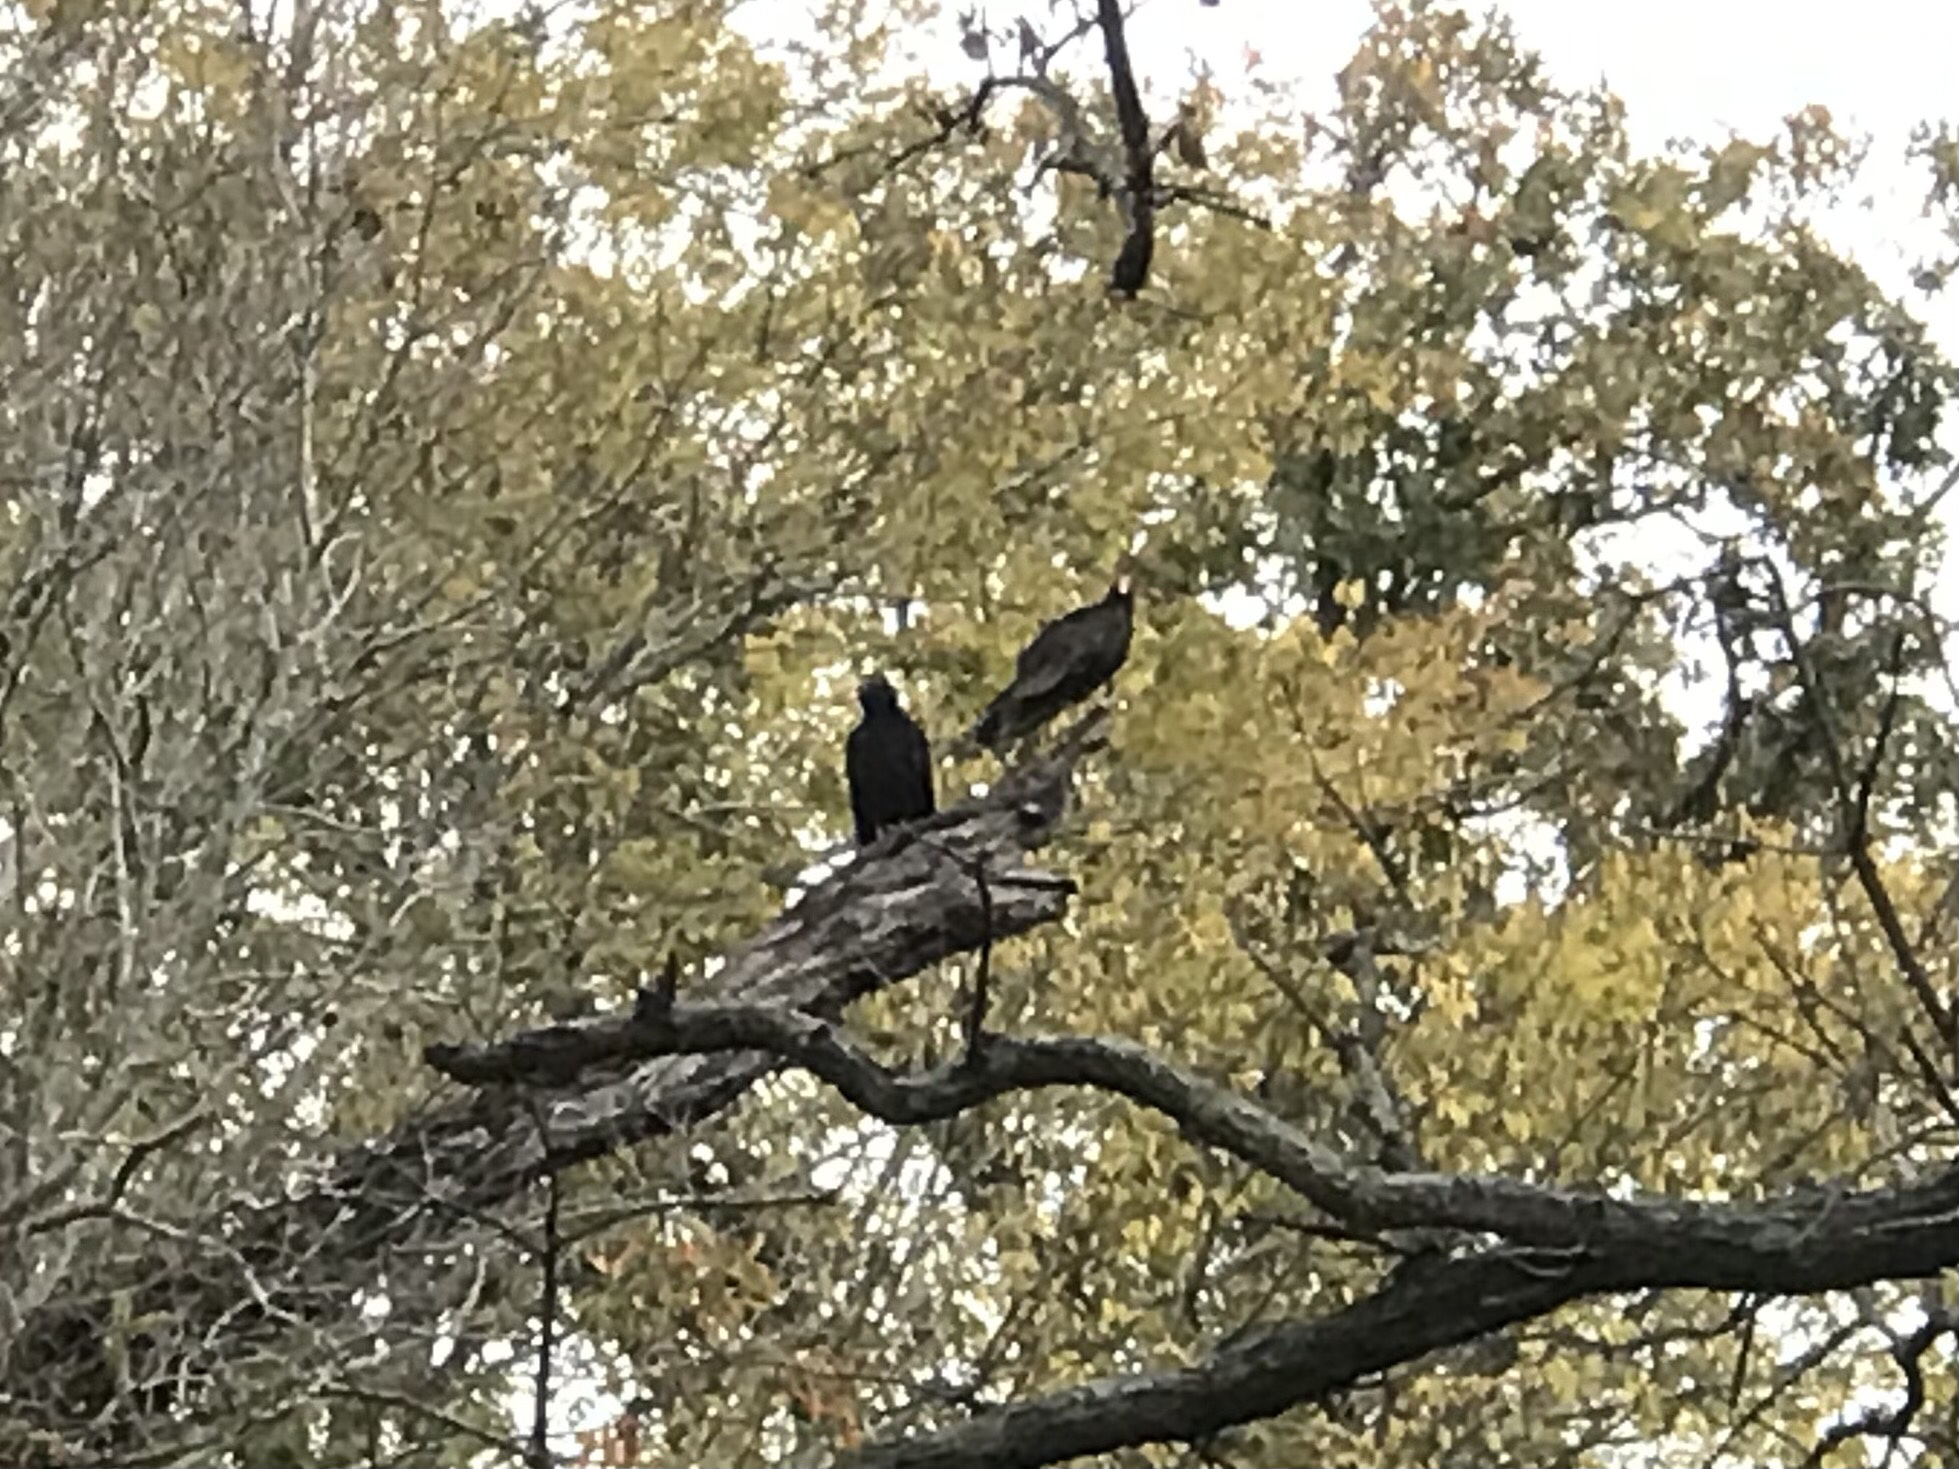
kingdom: Animalia
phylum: Chordata
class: Aves
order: Accipitriformes
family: Cathartidae
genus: Cathartes
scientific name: Cathartes aura
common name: Turkey vulture
